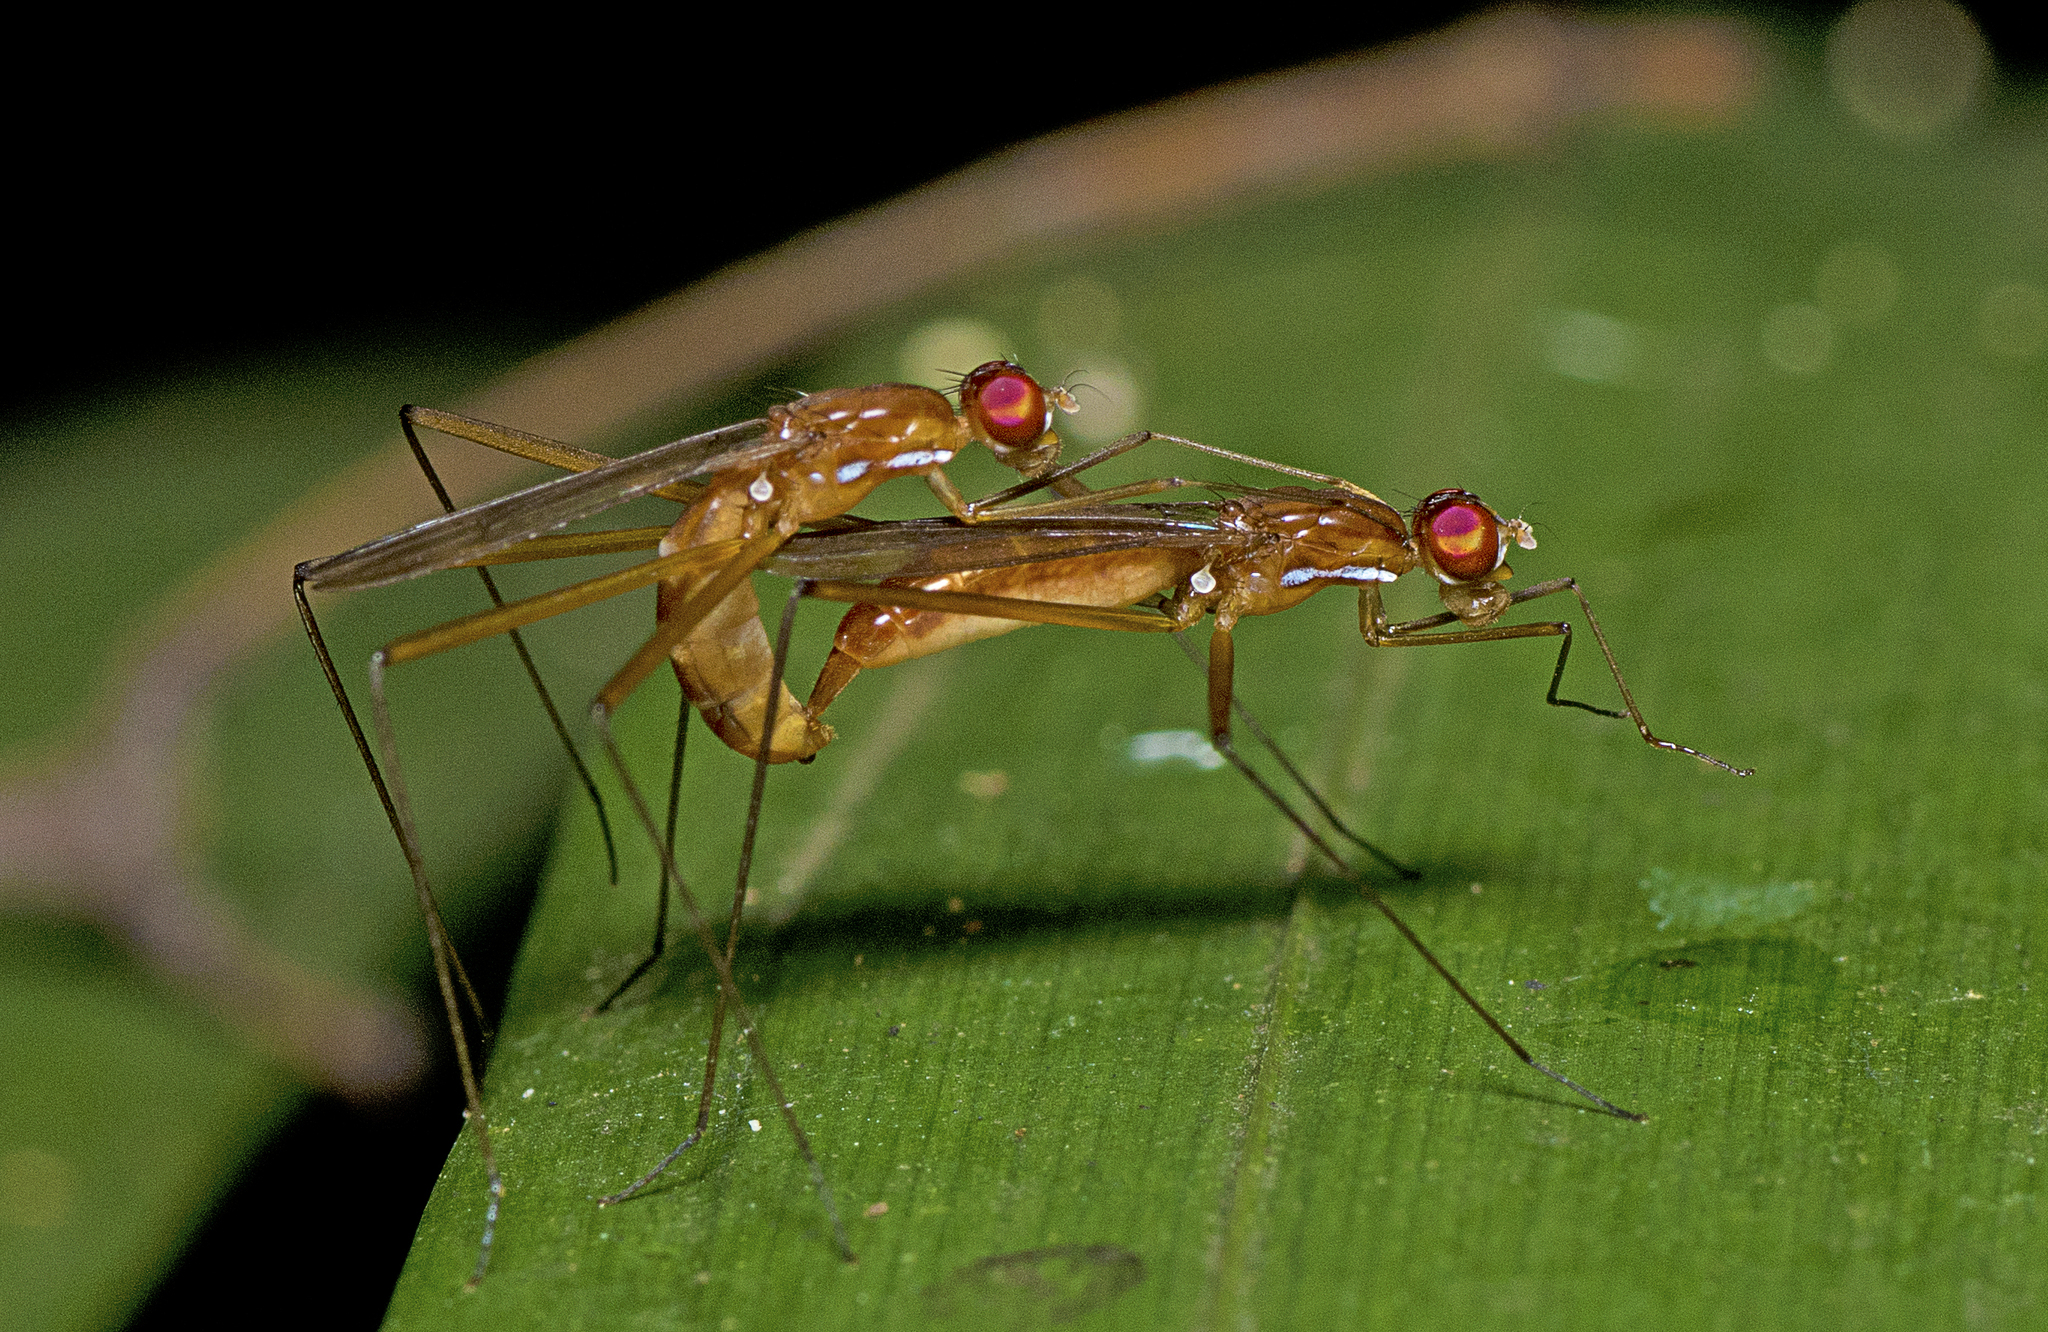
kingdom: Animalia
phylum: Arthropoda
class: Insecta
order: Diptera
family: Micropezidae
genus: Cothornobata
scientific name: Cothornobata aczeli
